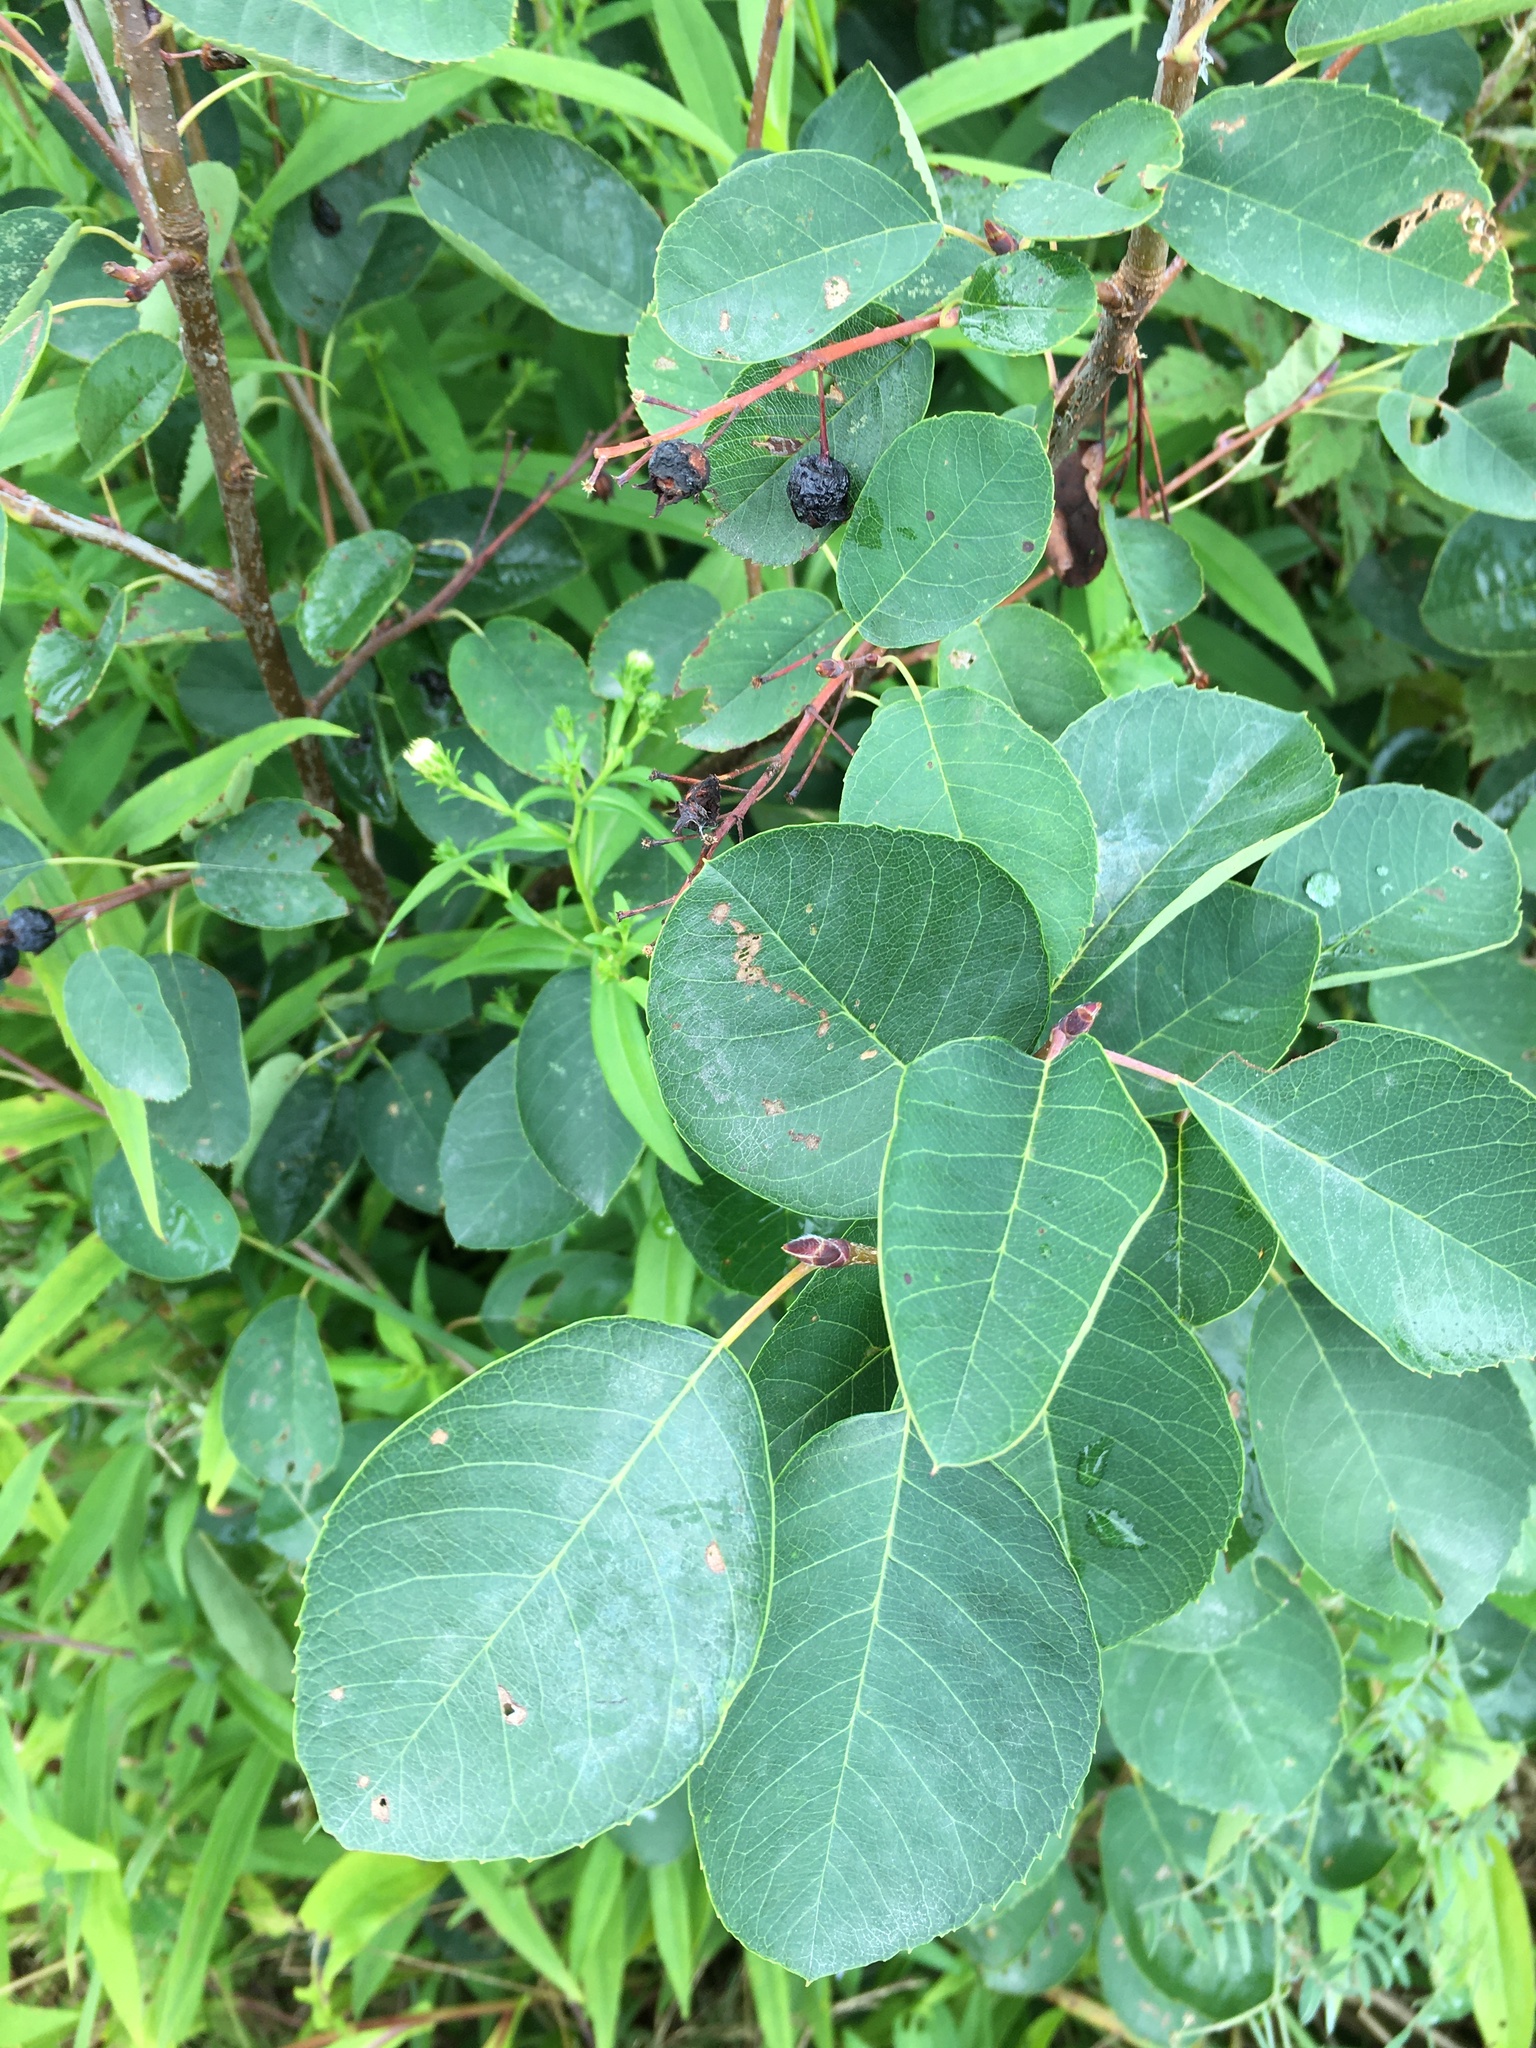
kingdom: Plantae
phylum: Tracheophyta
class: Magnoliopsida
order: Rosales
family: Rosaceae
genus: Amelanchier
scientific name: Amelanchier
